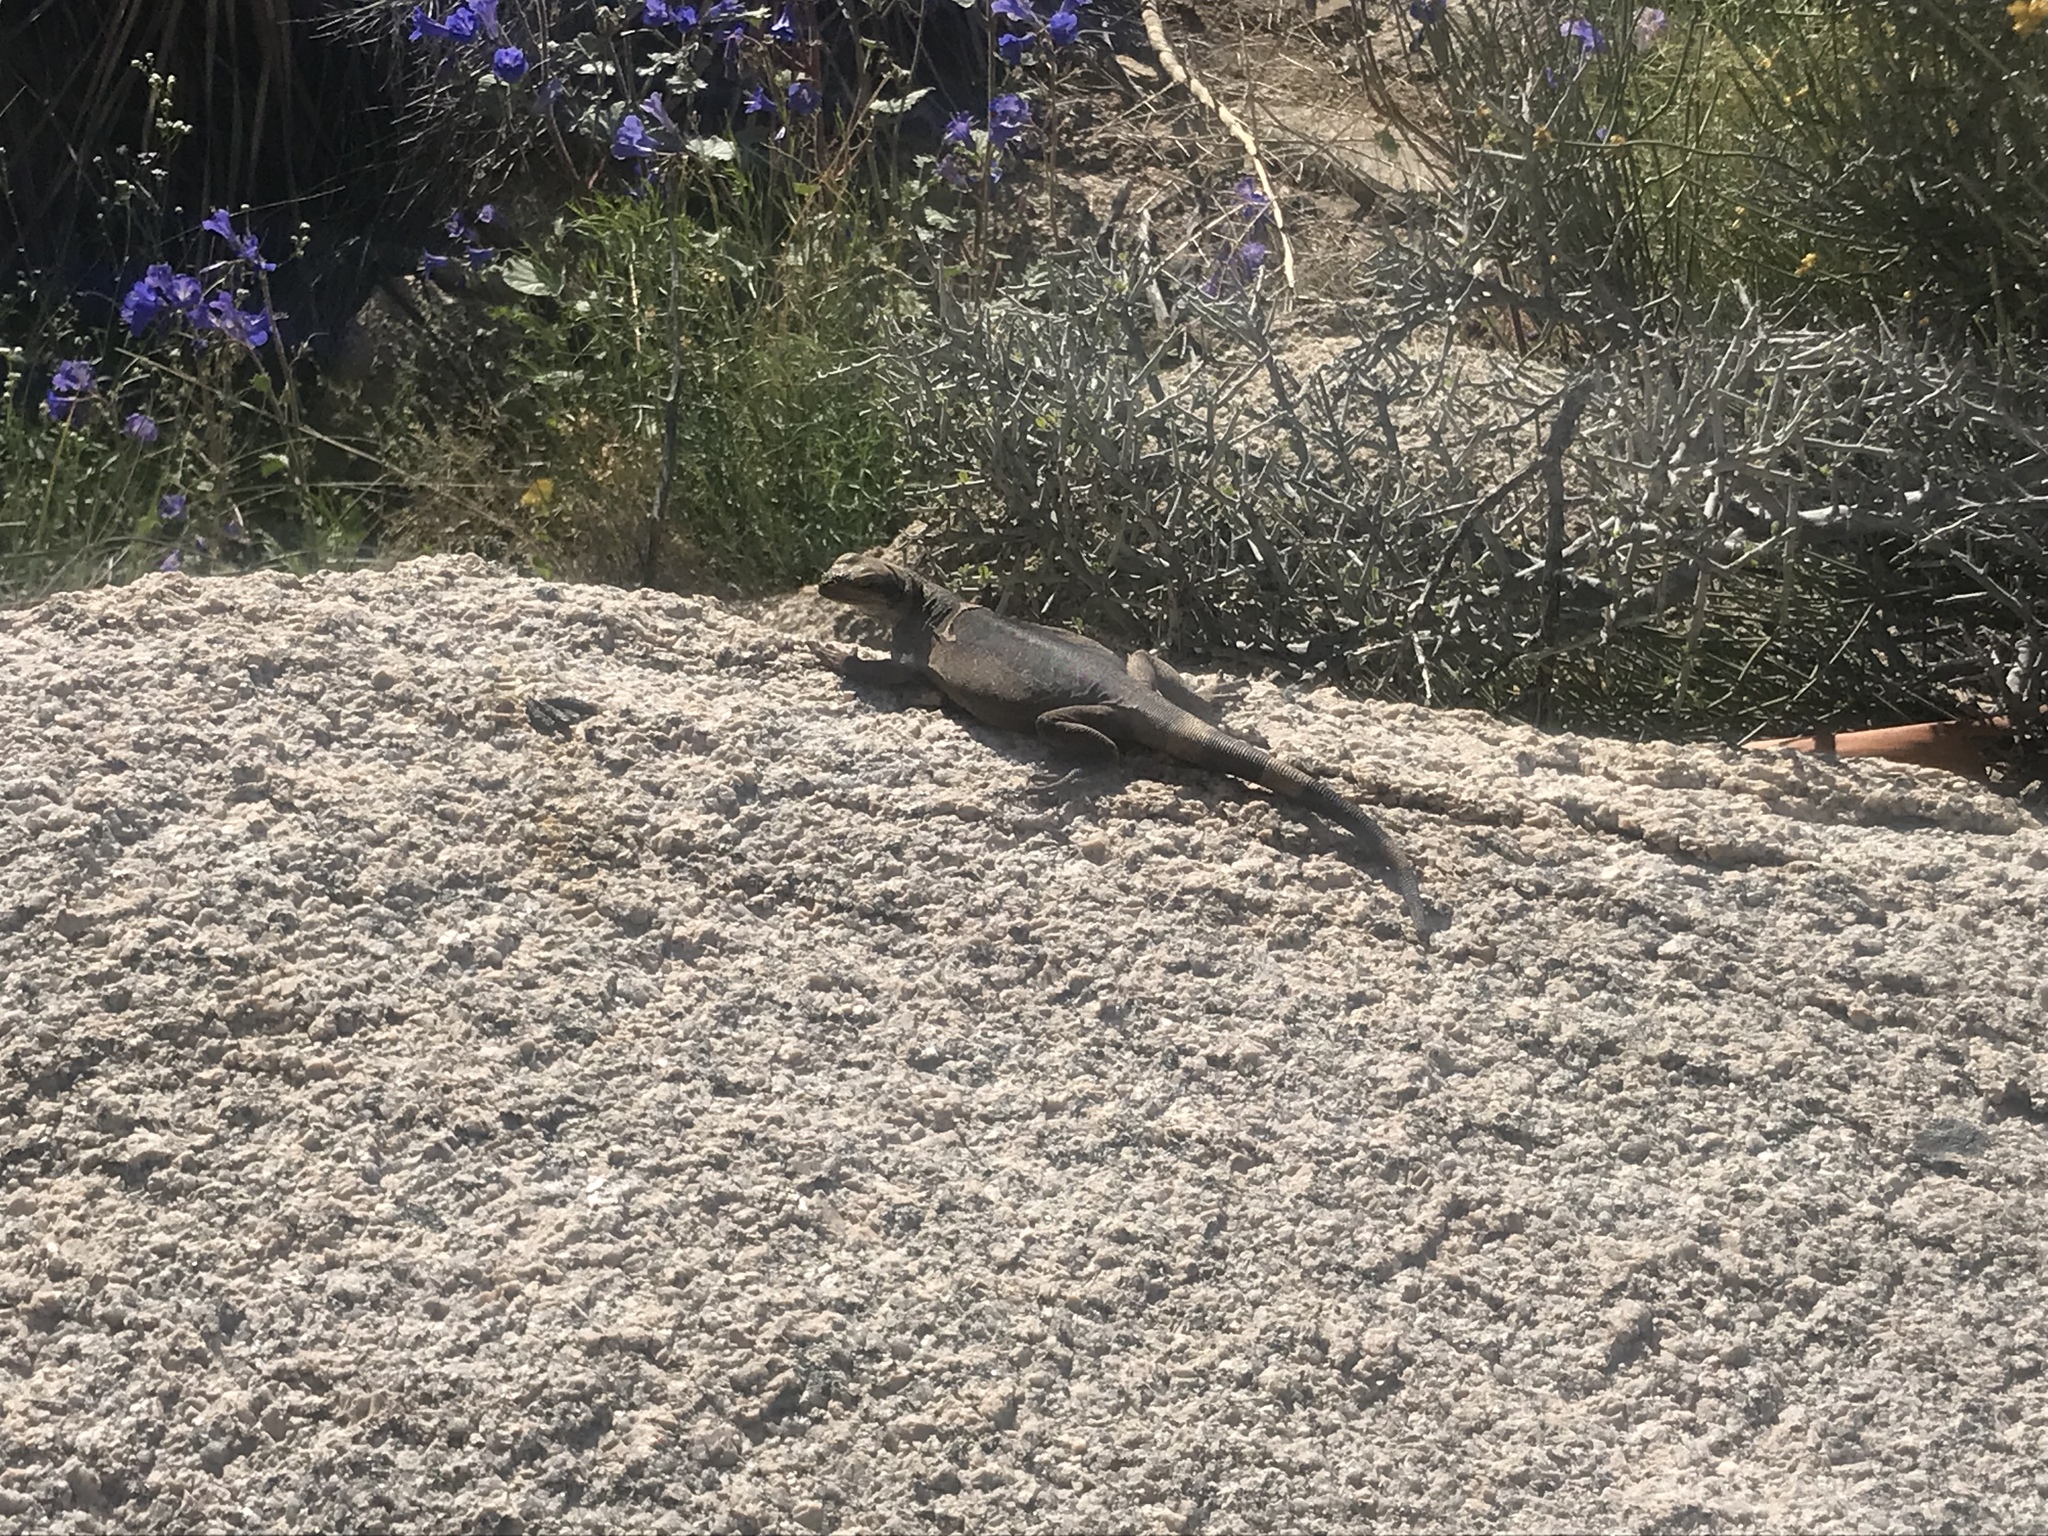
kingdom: Animalia
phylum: Chordata
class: Squamata
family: Iguanidae
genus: Sauromalus
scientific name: Sauromalus ater
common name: Northern chuckwalla
